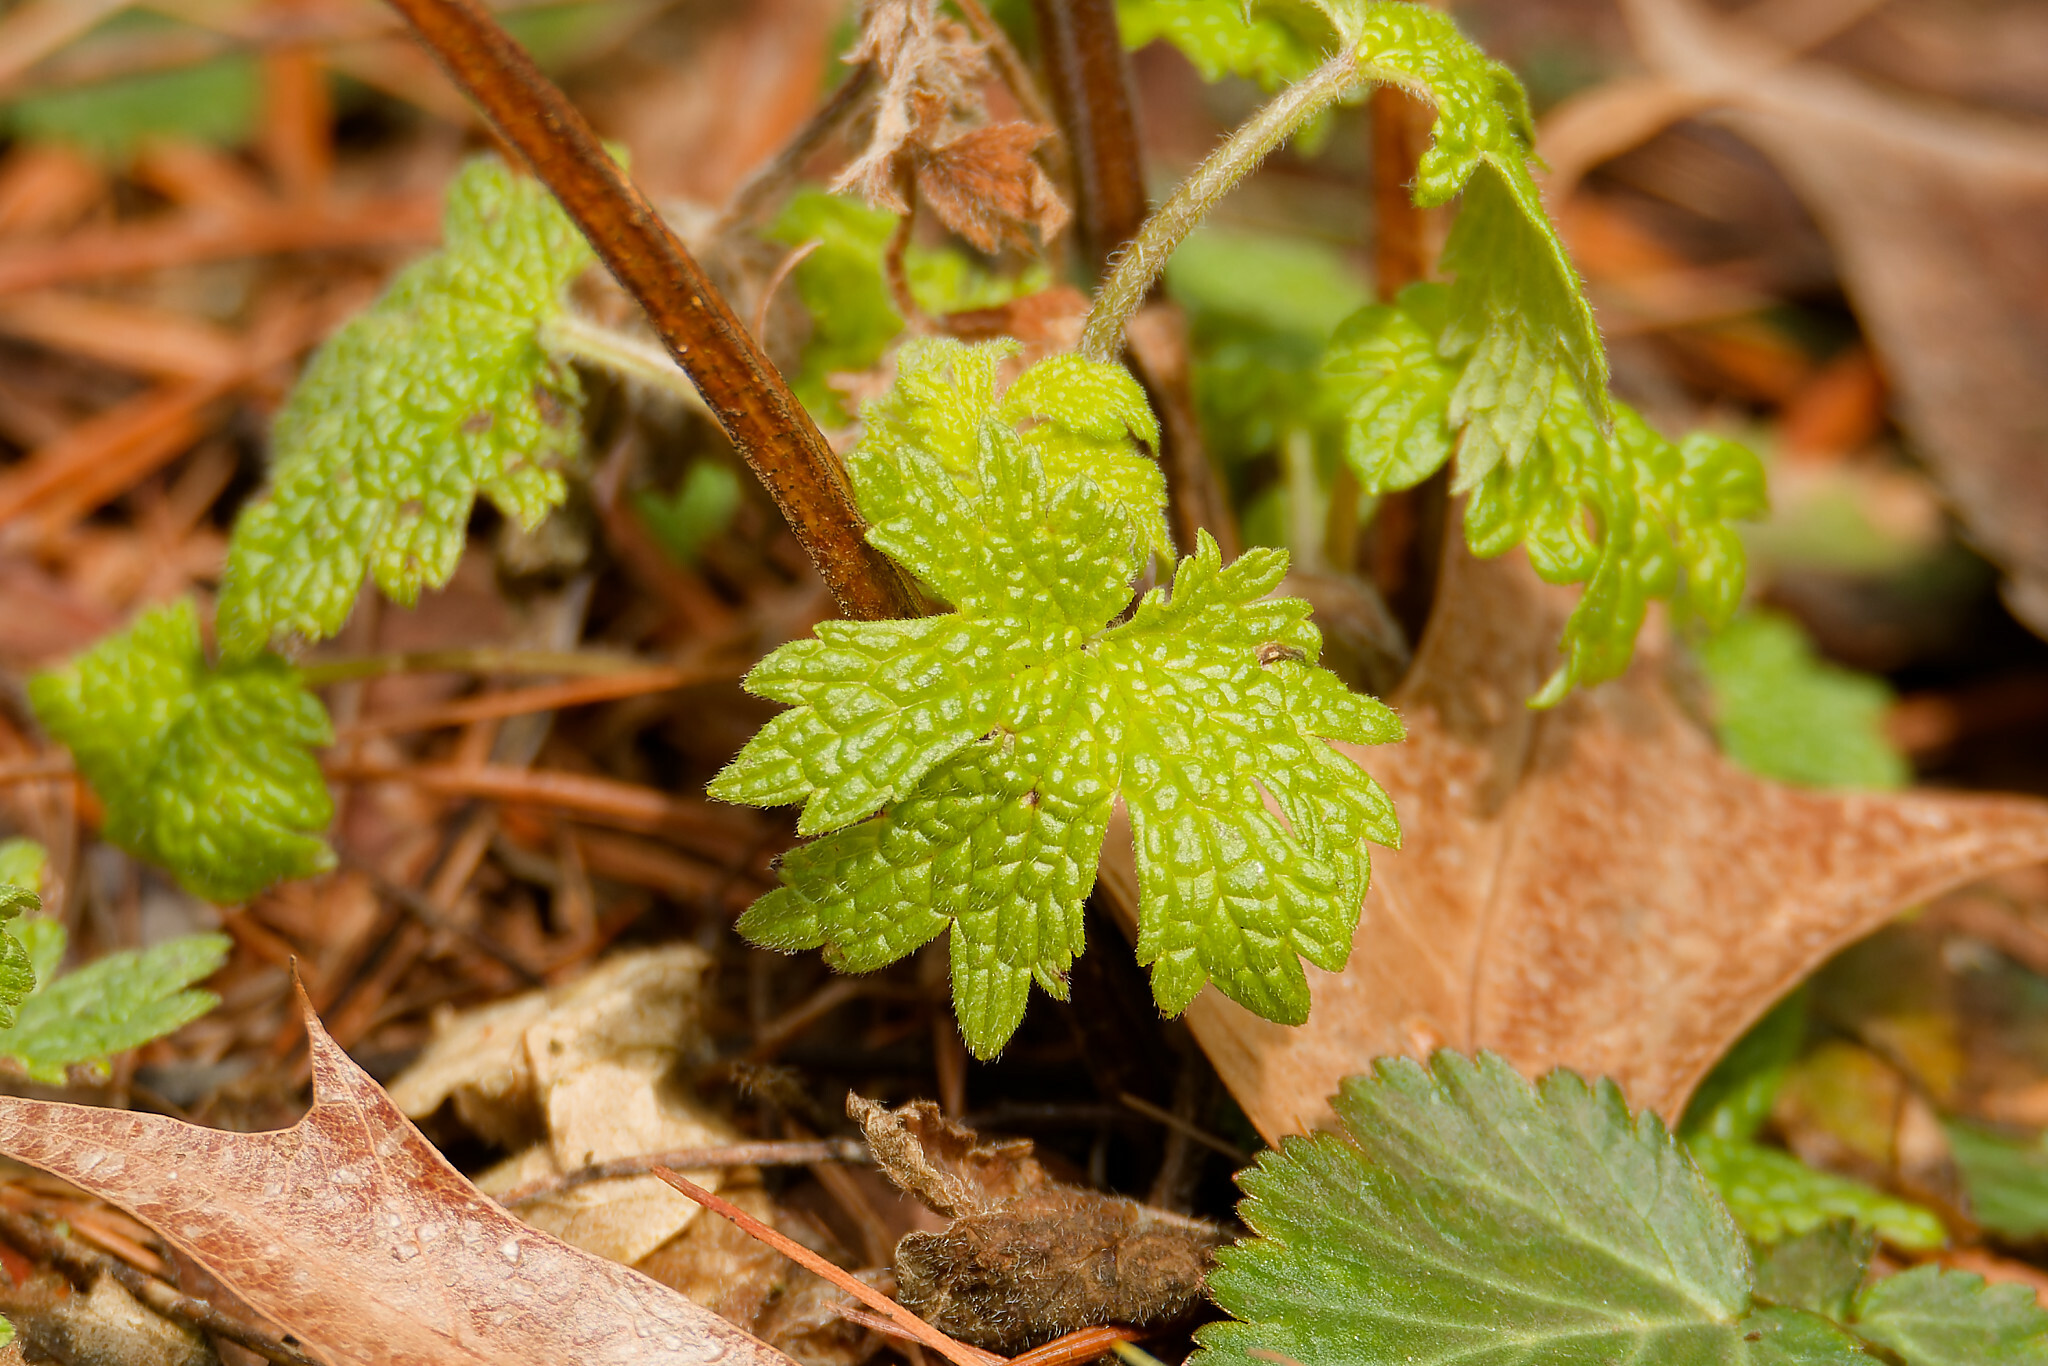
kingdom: Plantae
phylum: Tracheophyta
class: Magnoliopsida
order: Lamiales
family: Lamiaceae
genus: Leonurus
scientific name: Leonurus cardiaca
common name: Motherwort
